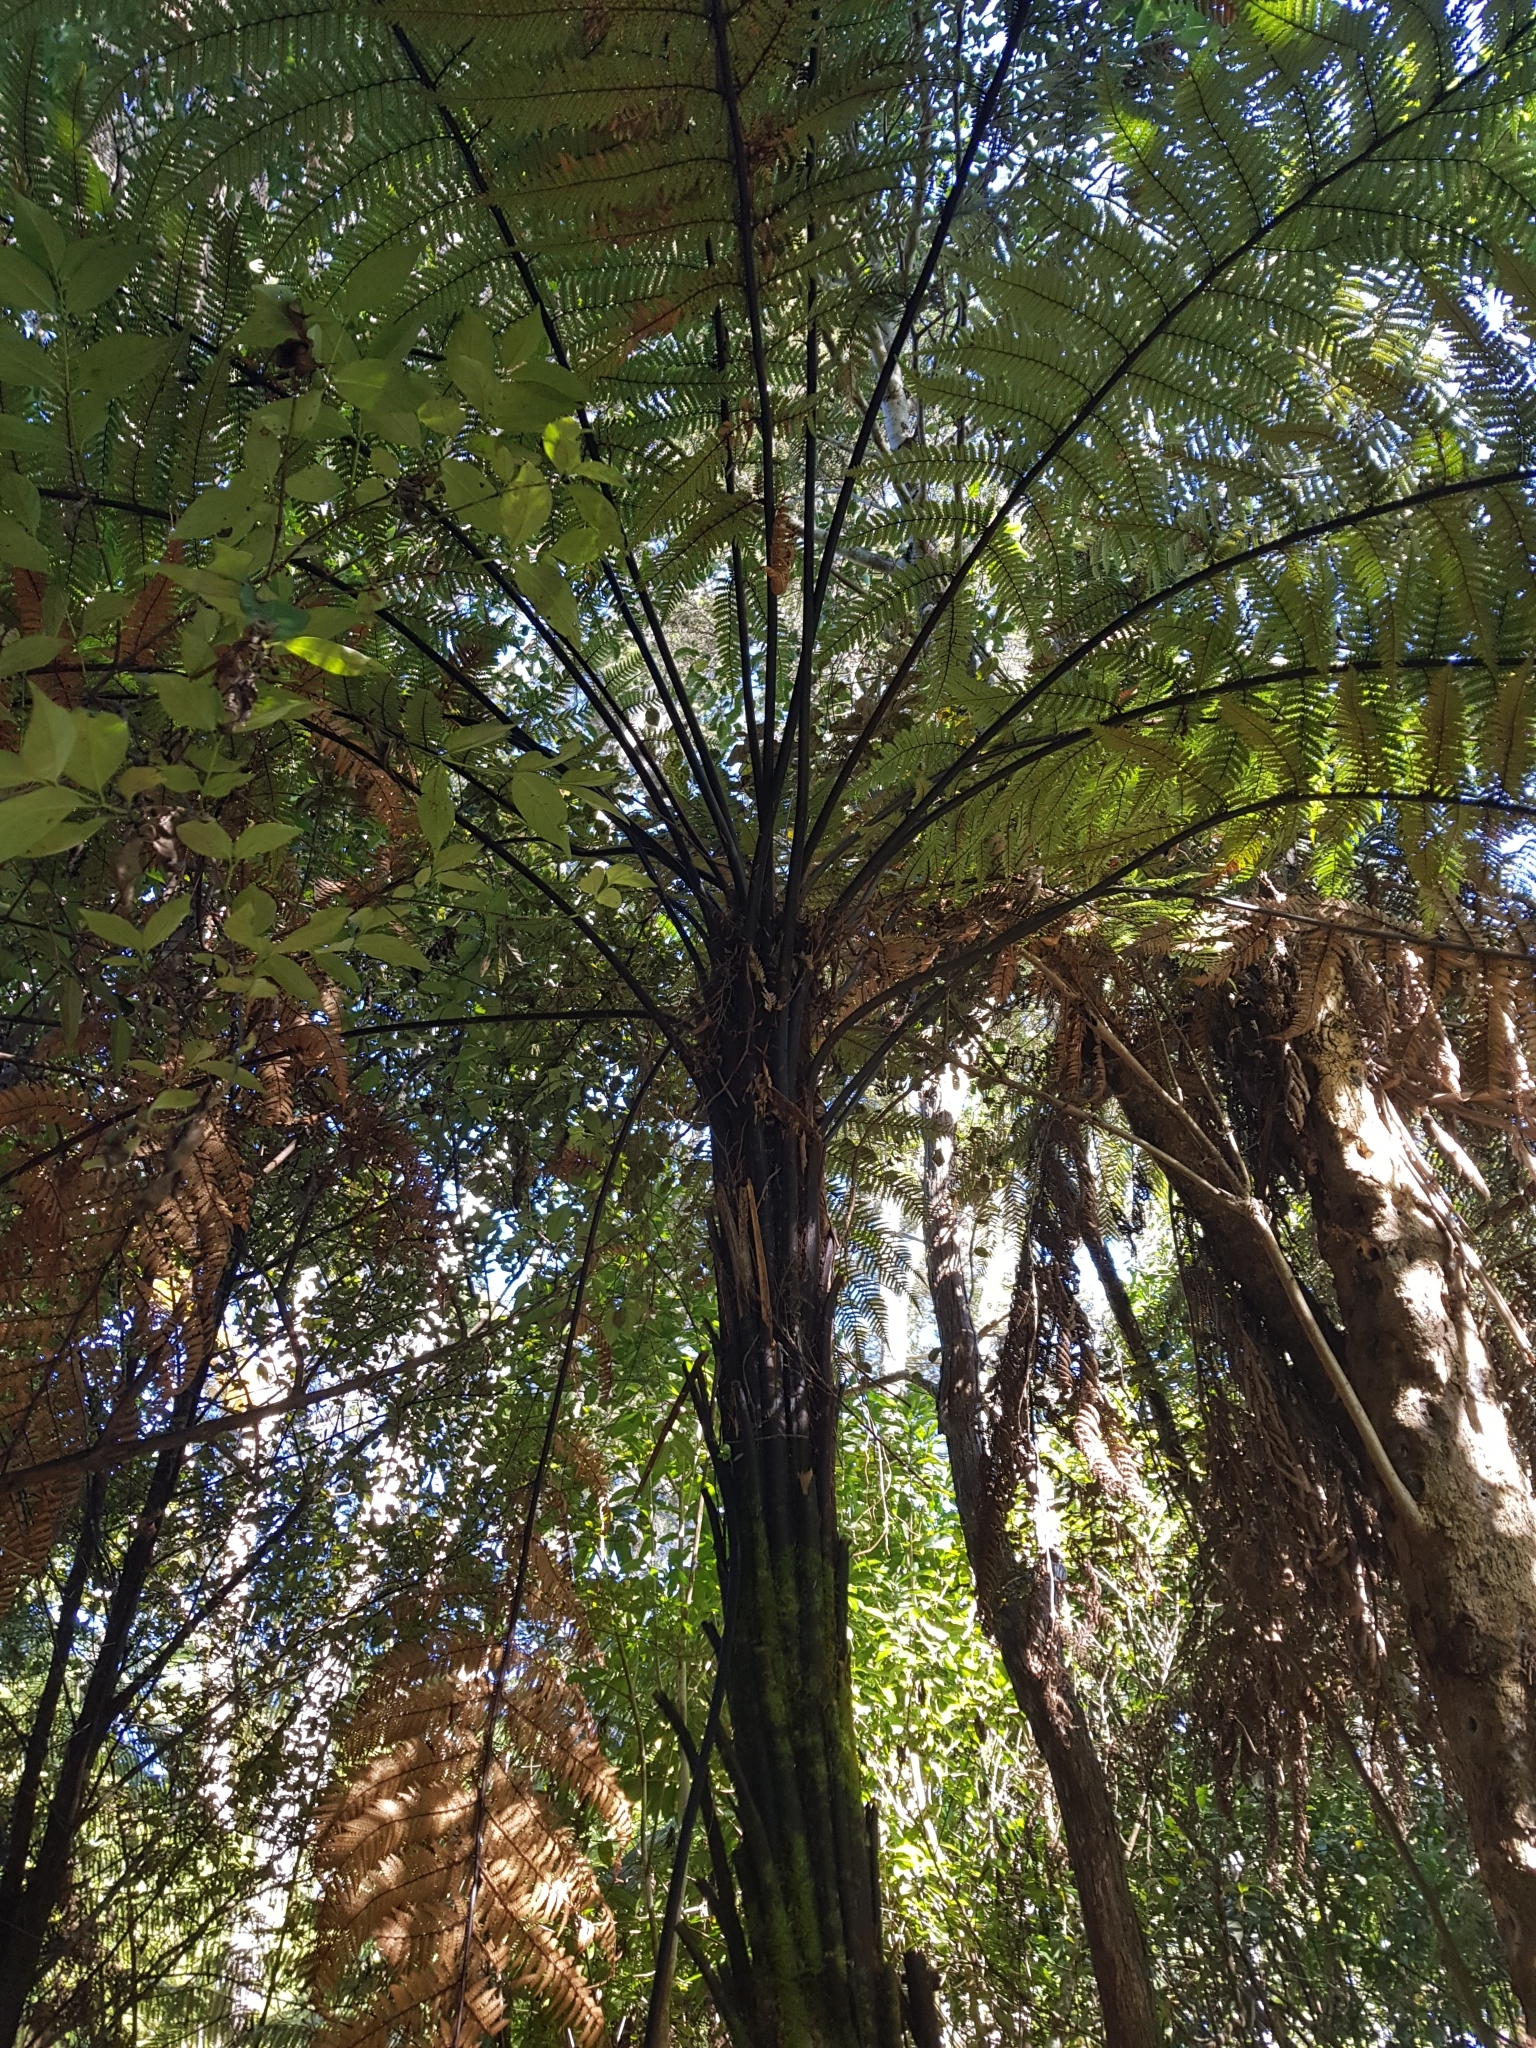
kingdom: Plantae
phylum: Tracheophyta
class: Polypodiopsida
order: Cyatheales
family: Dicksoniaceae
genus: Dicksonia
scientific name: Dicksonia squarrosa
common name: Hard treefern
